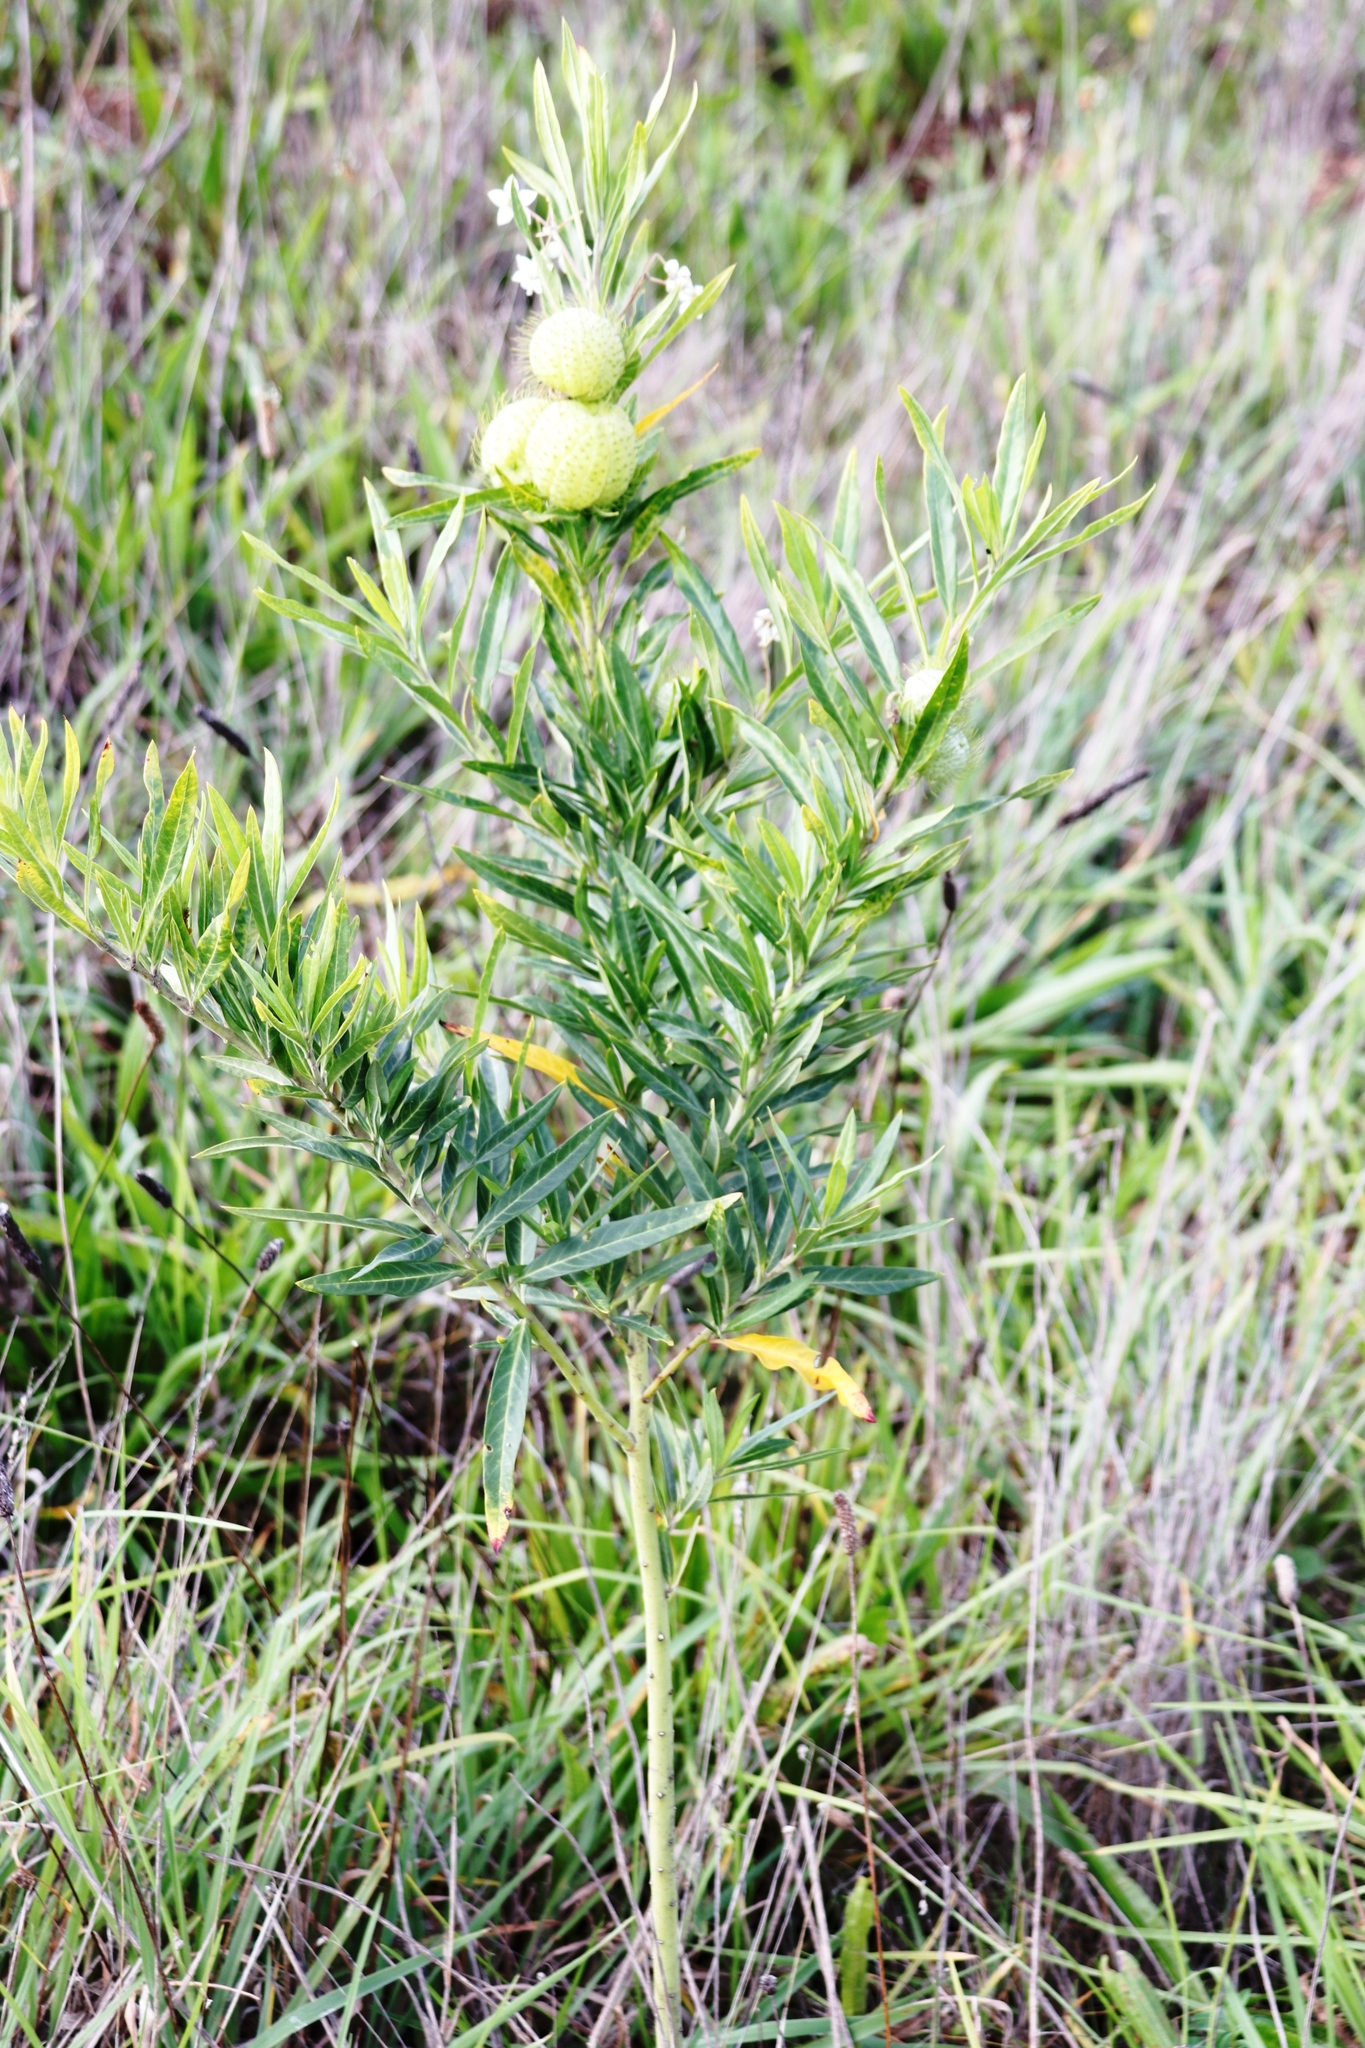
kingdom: Plantae
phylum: Tracheophyta
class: Magnoliopsida
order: Gentianales
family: Apocynaceae
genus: Gomphocarpus
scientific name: Gomphocarpus physocarpus
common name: Balloon cotton bush
